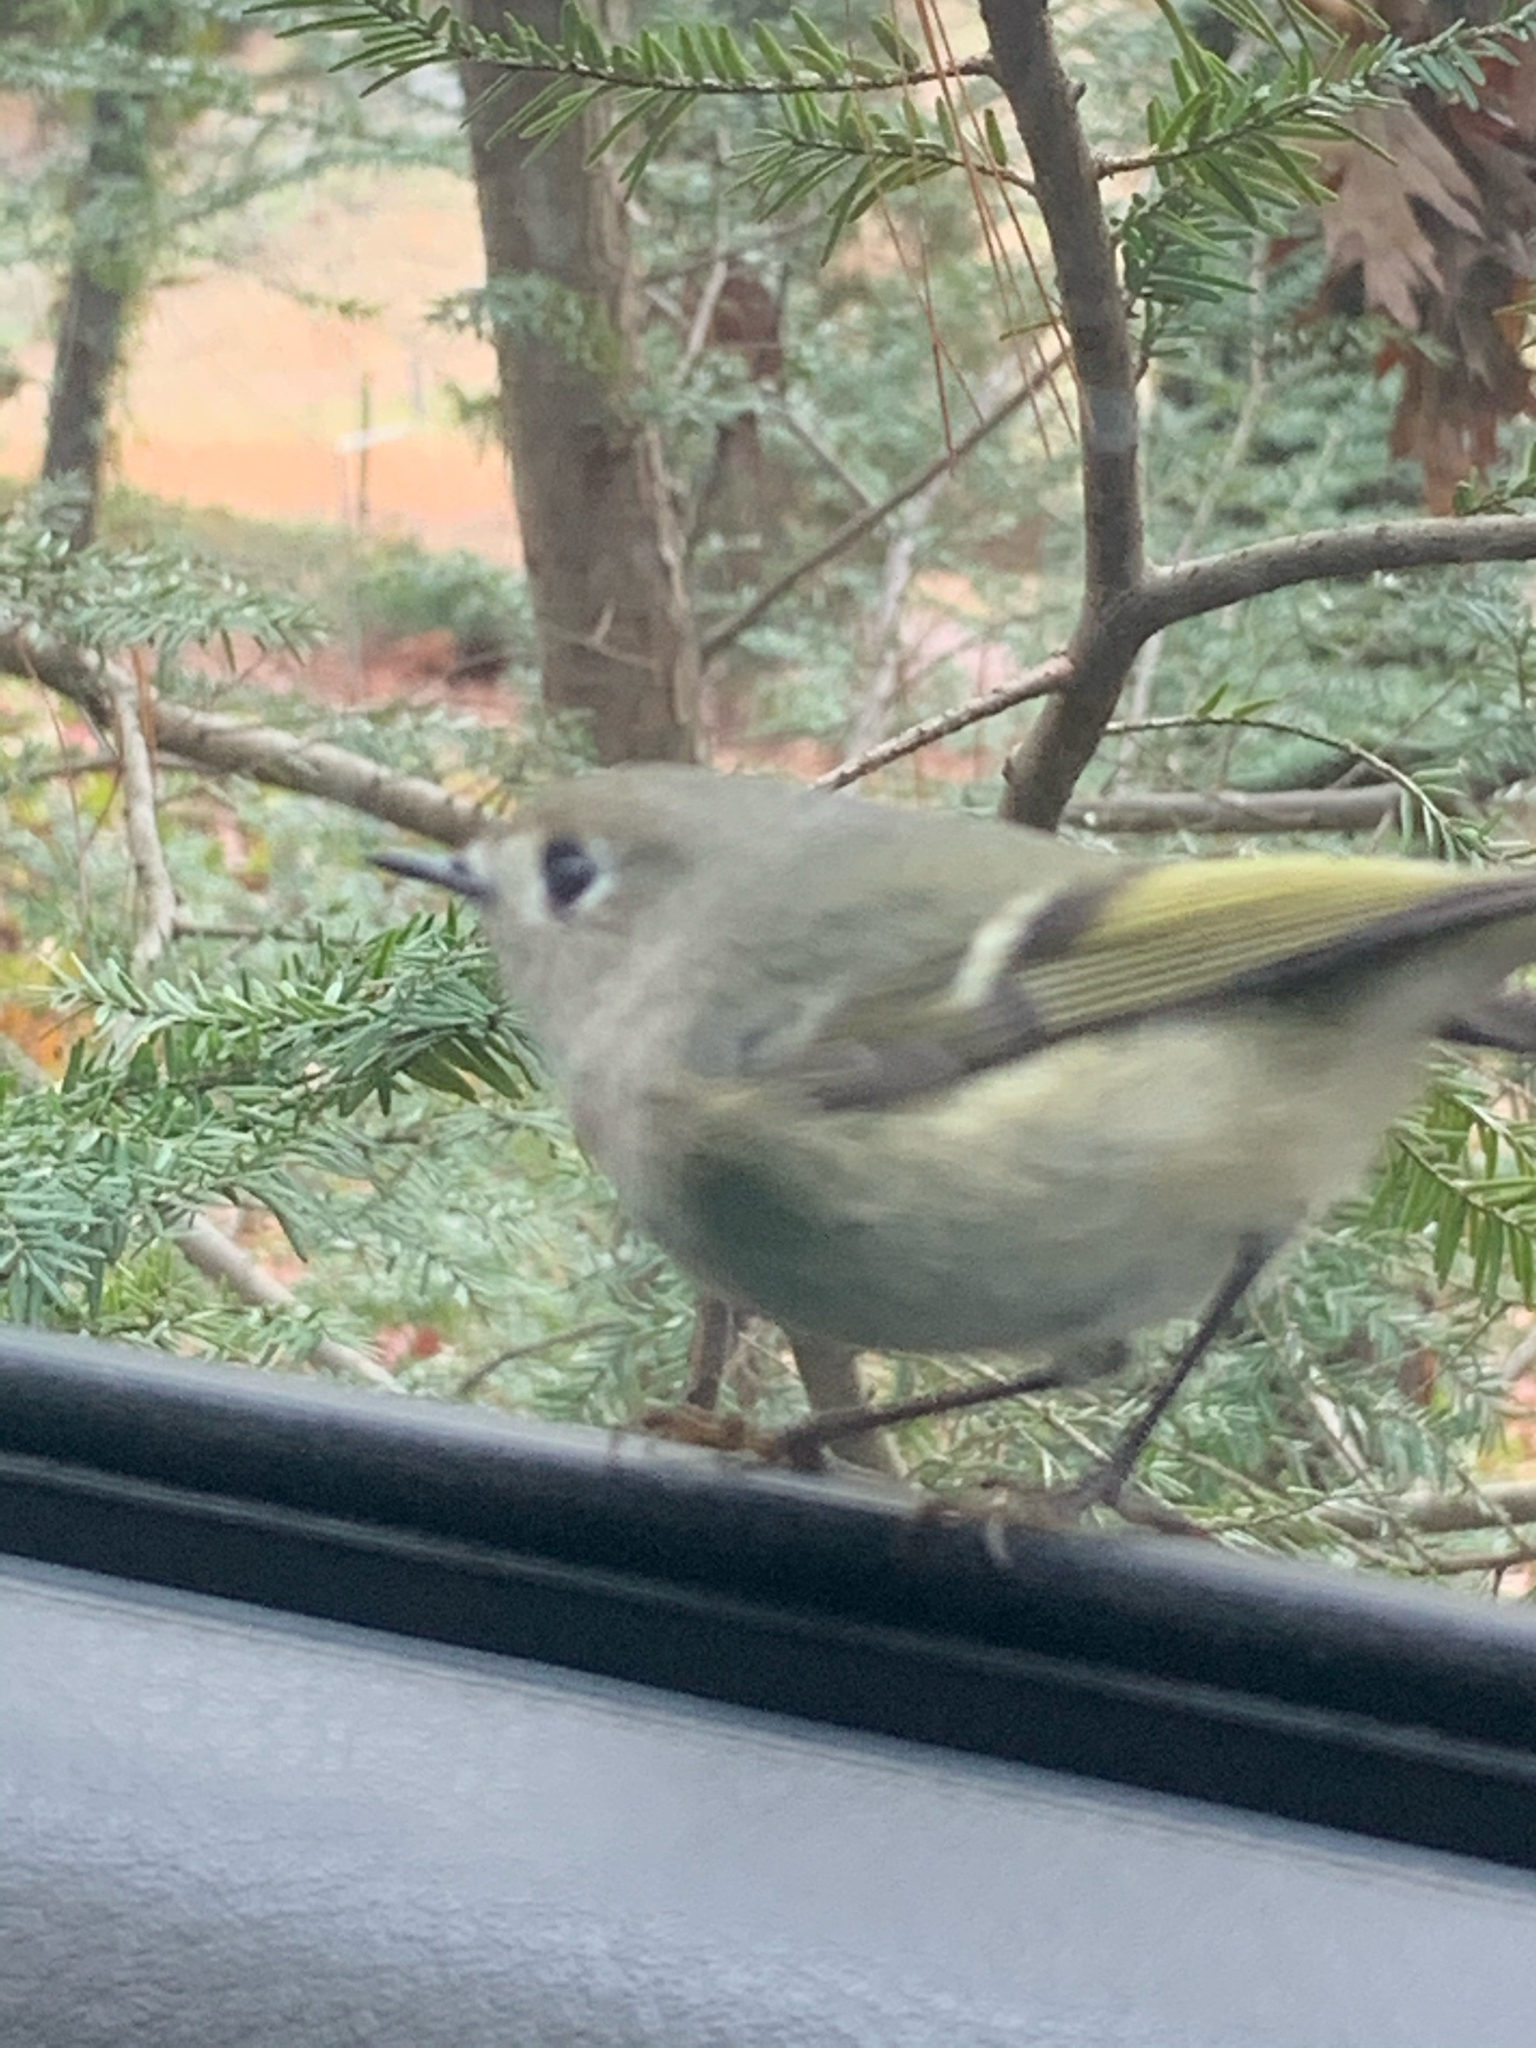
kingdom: Animalia
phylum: Chordata
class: Aves
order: Passeriformes
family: Regulidae
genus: Regulus
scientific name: Regulus calendula
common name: Ruby-crowned kinglet
